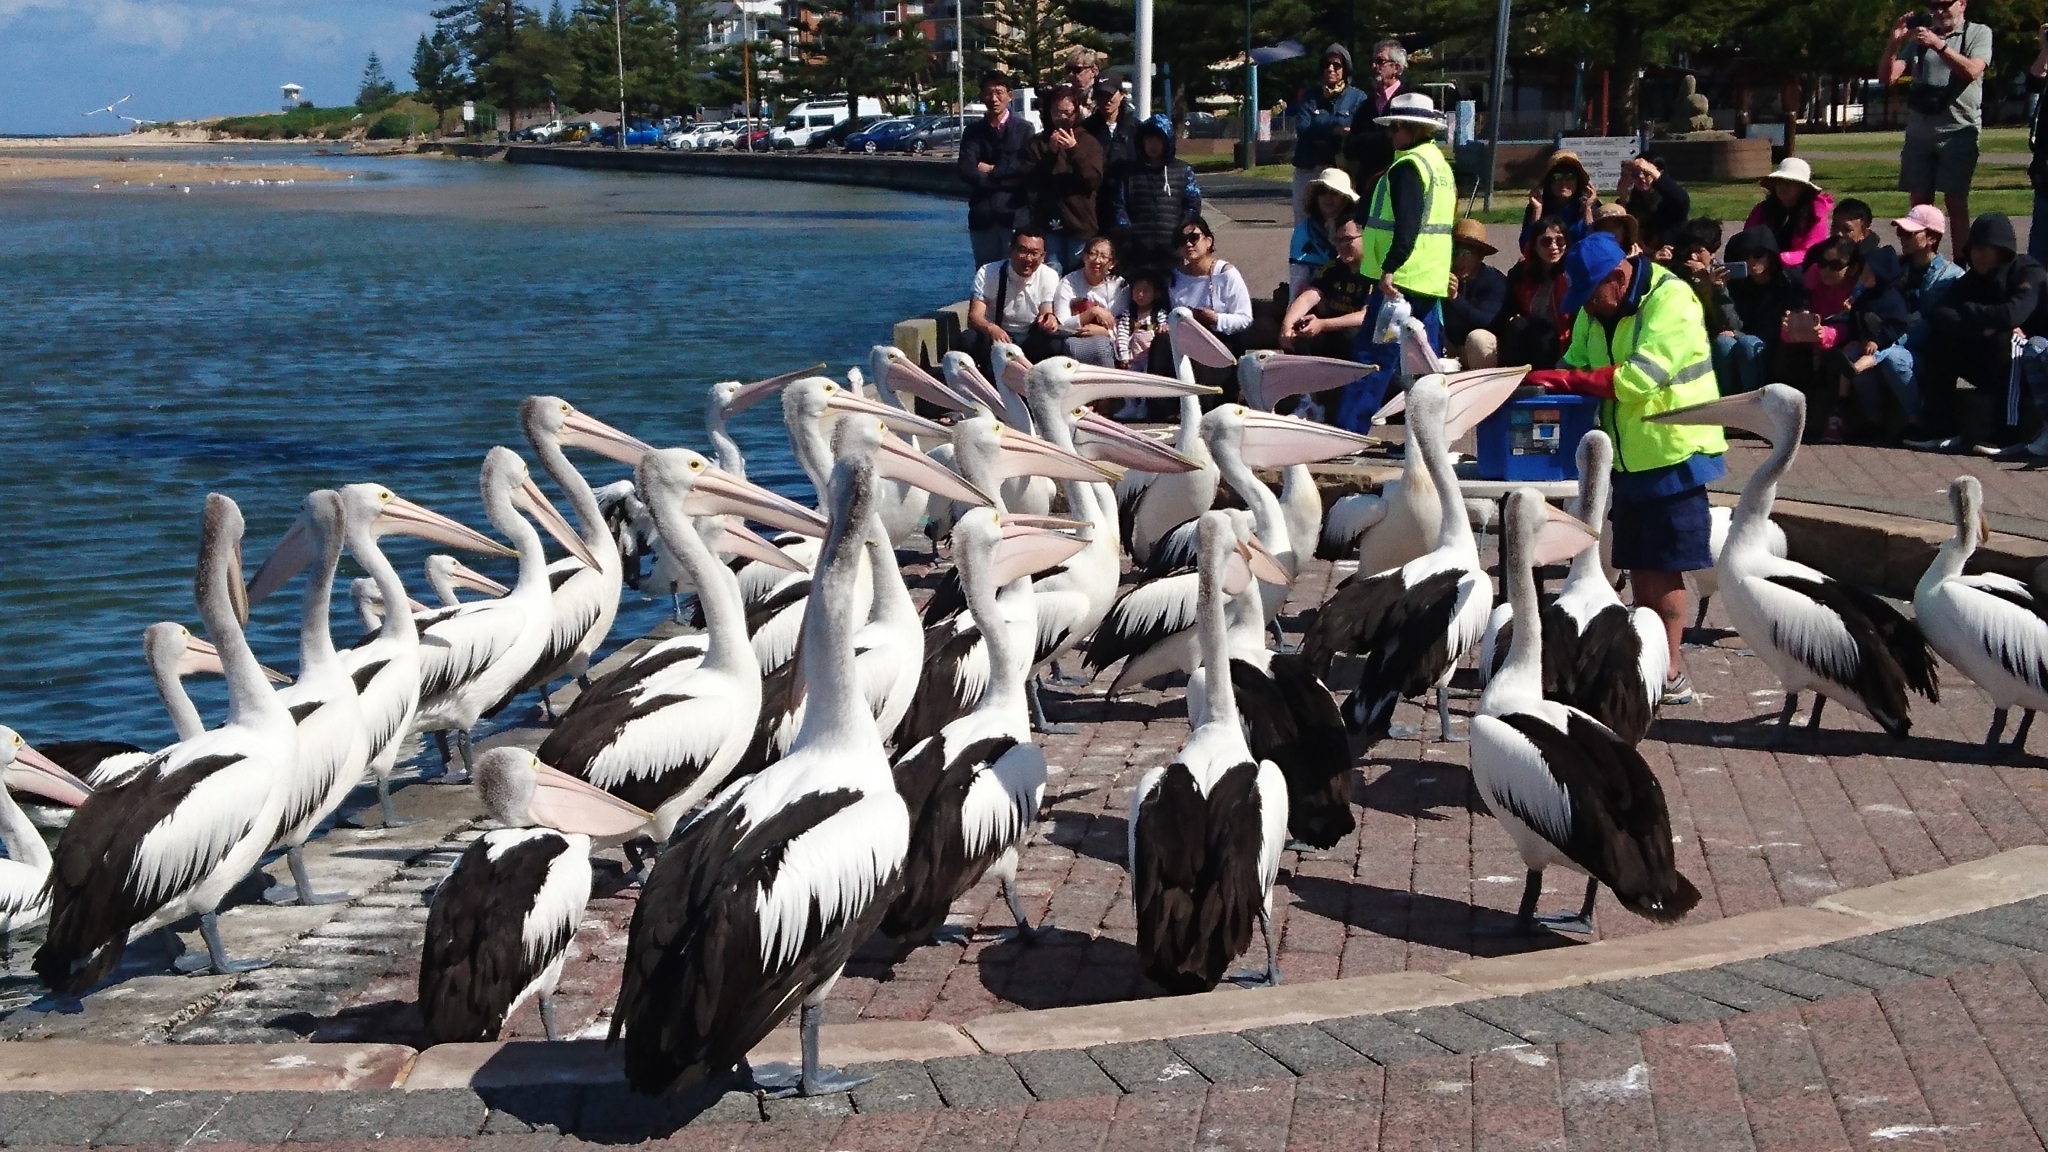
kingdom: Animalia
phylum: Chordata
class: Aves
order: Pelecaniformes
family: Pelecanidae
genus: Pelecanus
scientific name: Pelecanus conspicillatus
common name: Australian pelican
